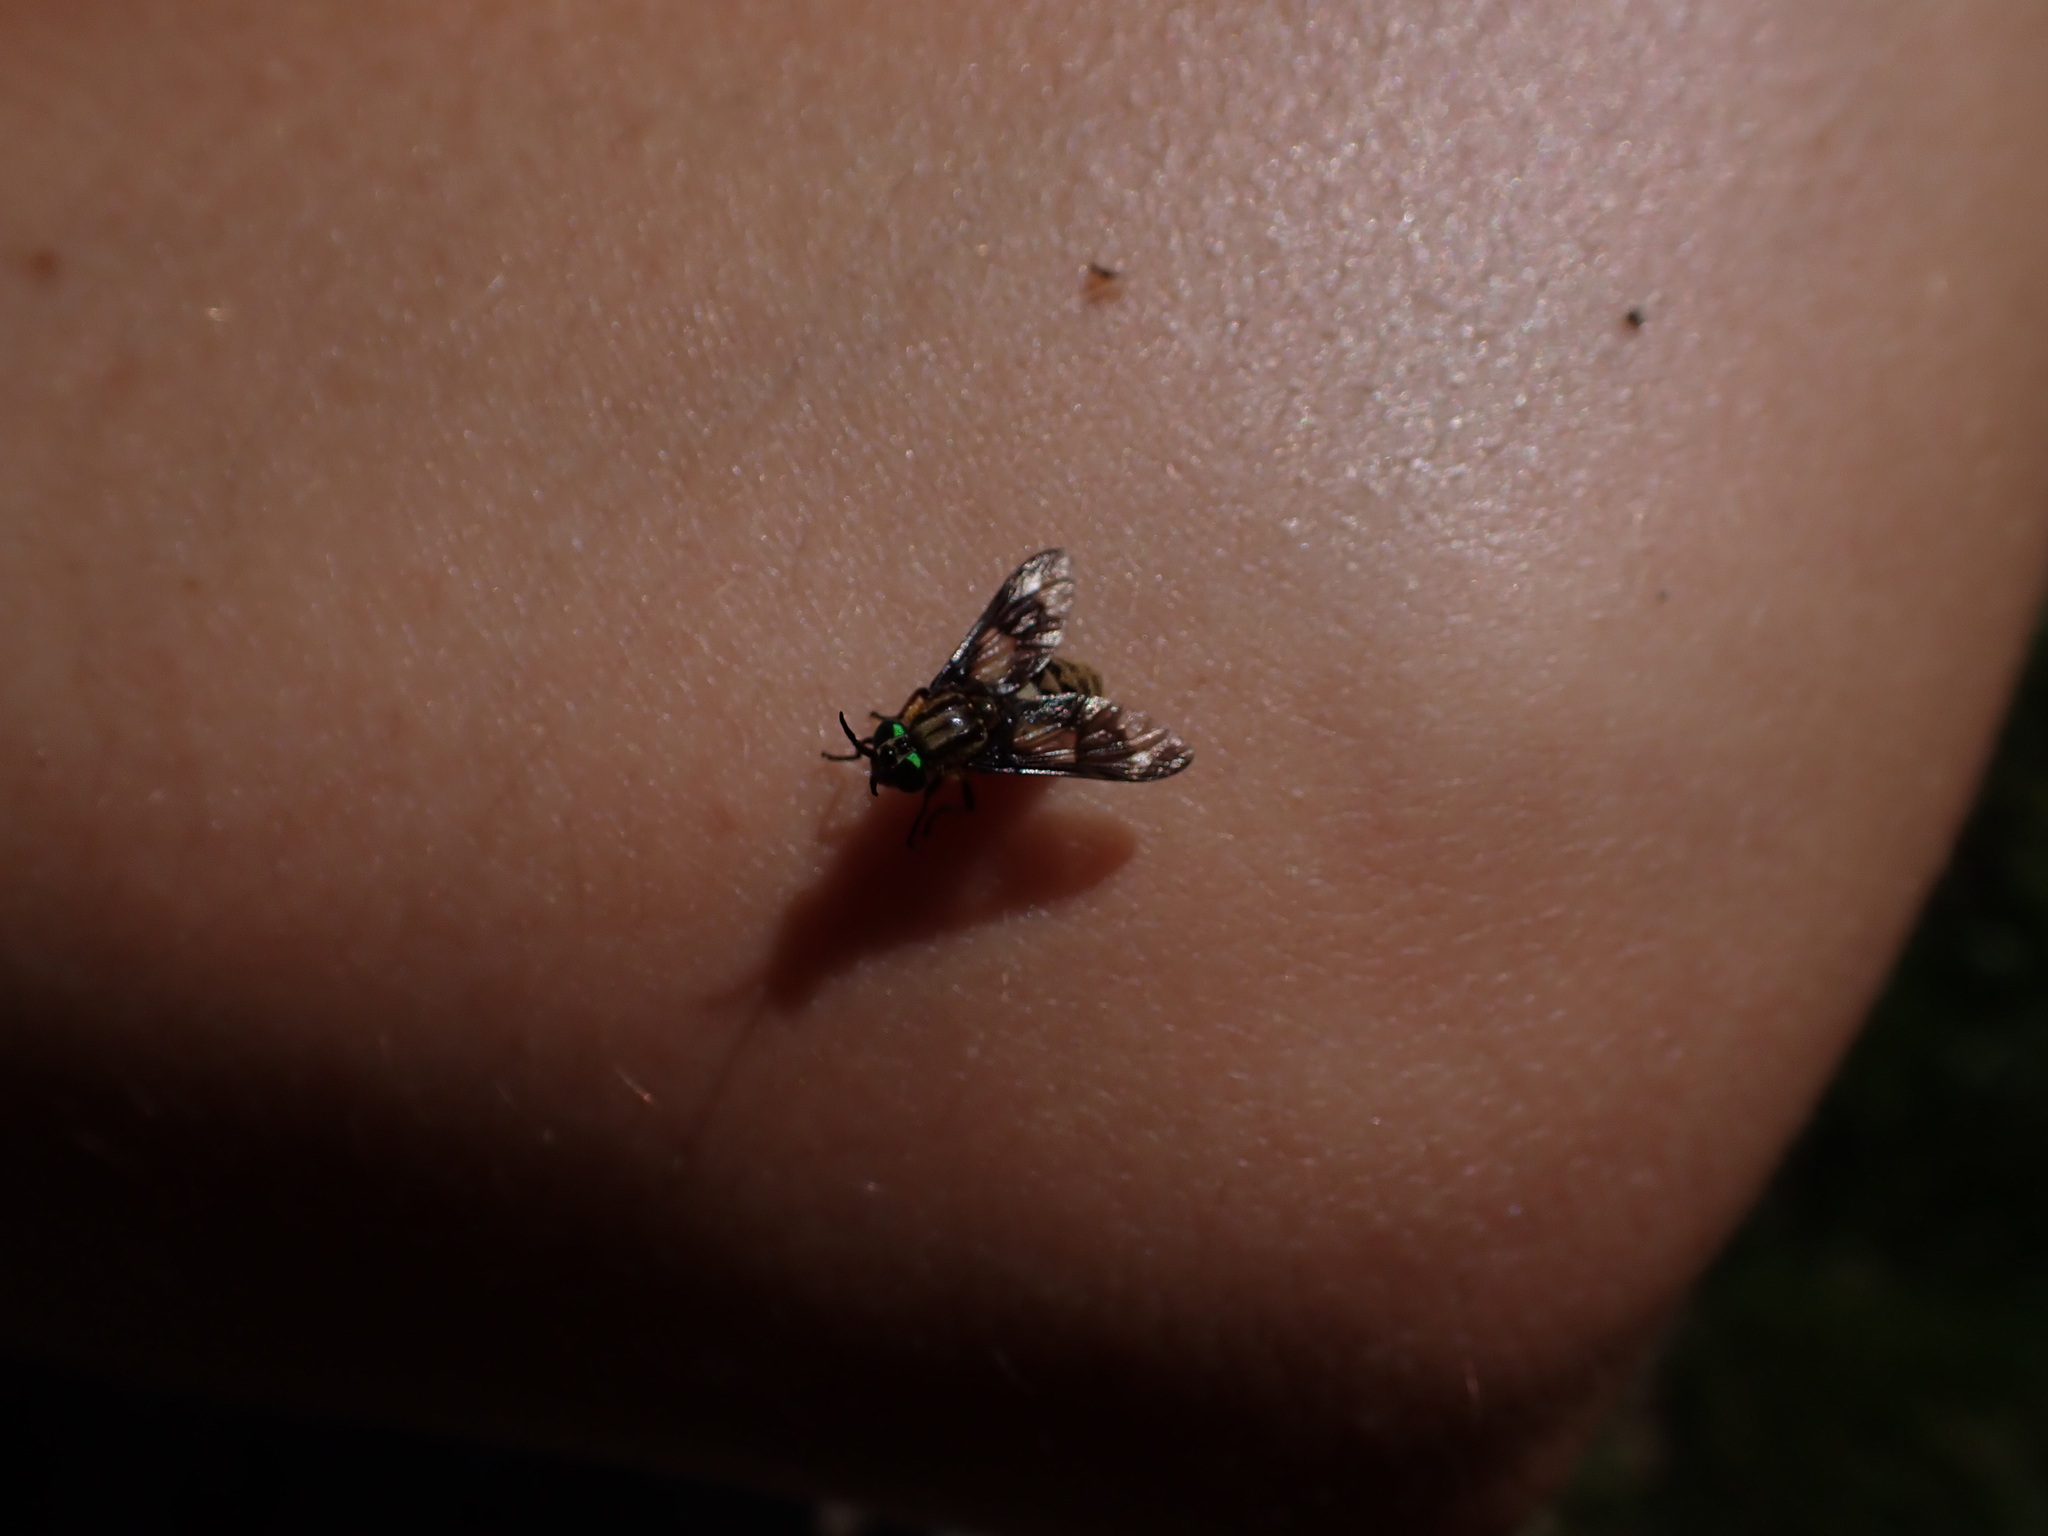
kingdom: Animalia
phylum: Arthropoda
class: Insecta
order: Diptera
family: Tabanidae
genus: Chrysops
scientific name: Chrysops relictus
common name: Twin-lobed deerfly
